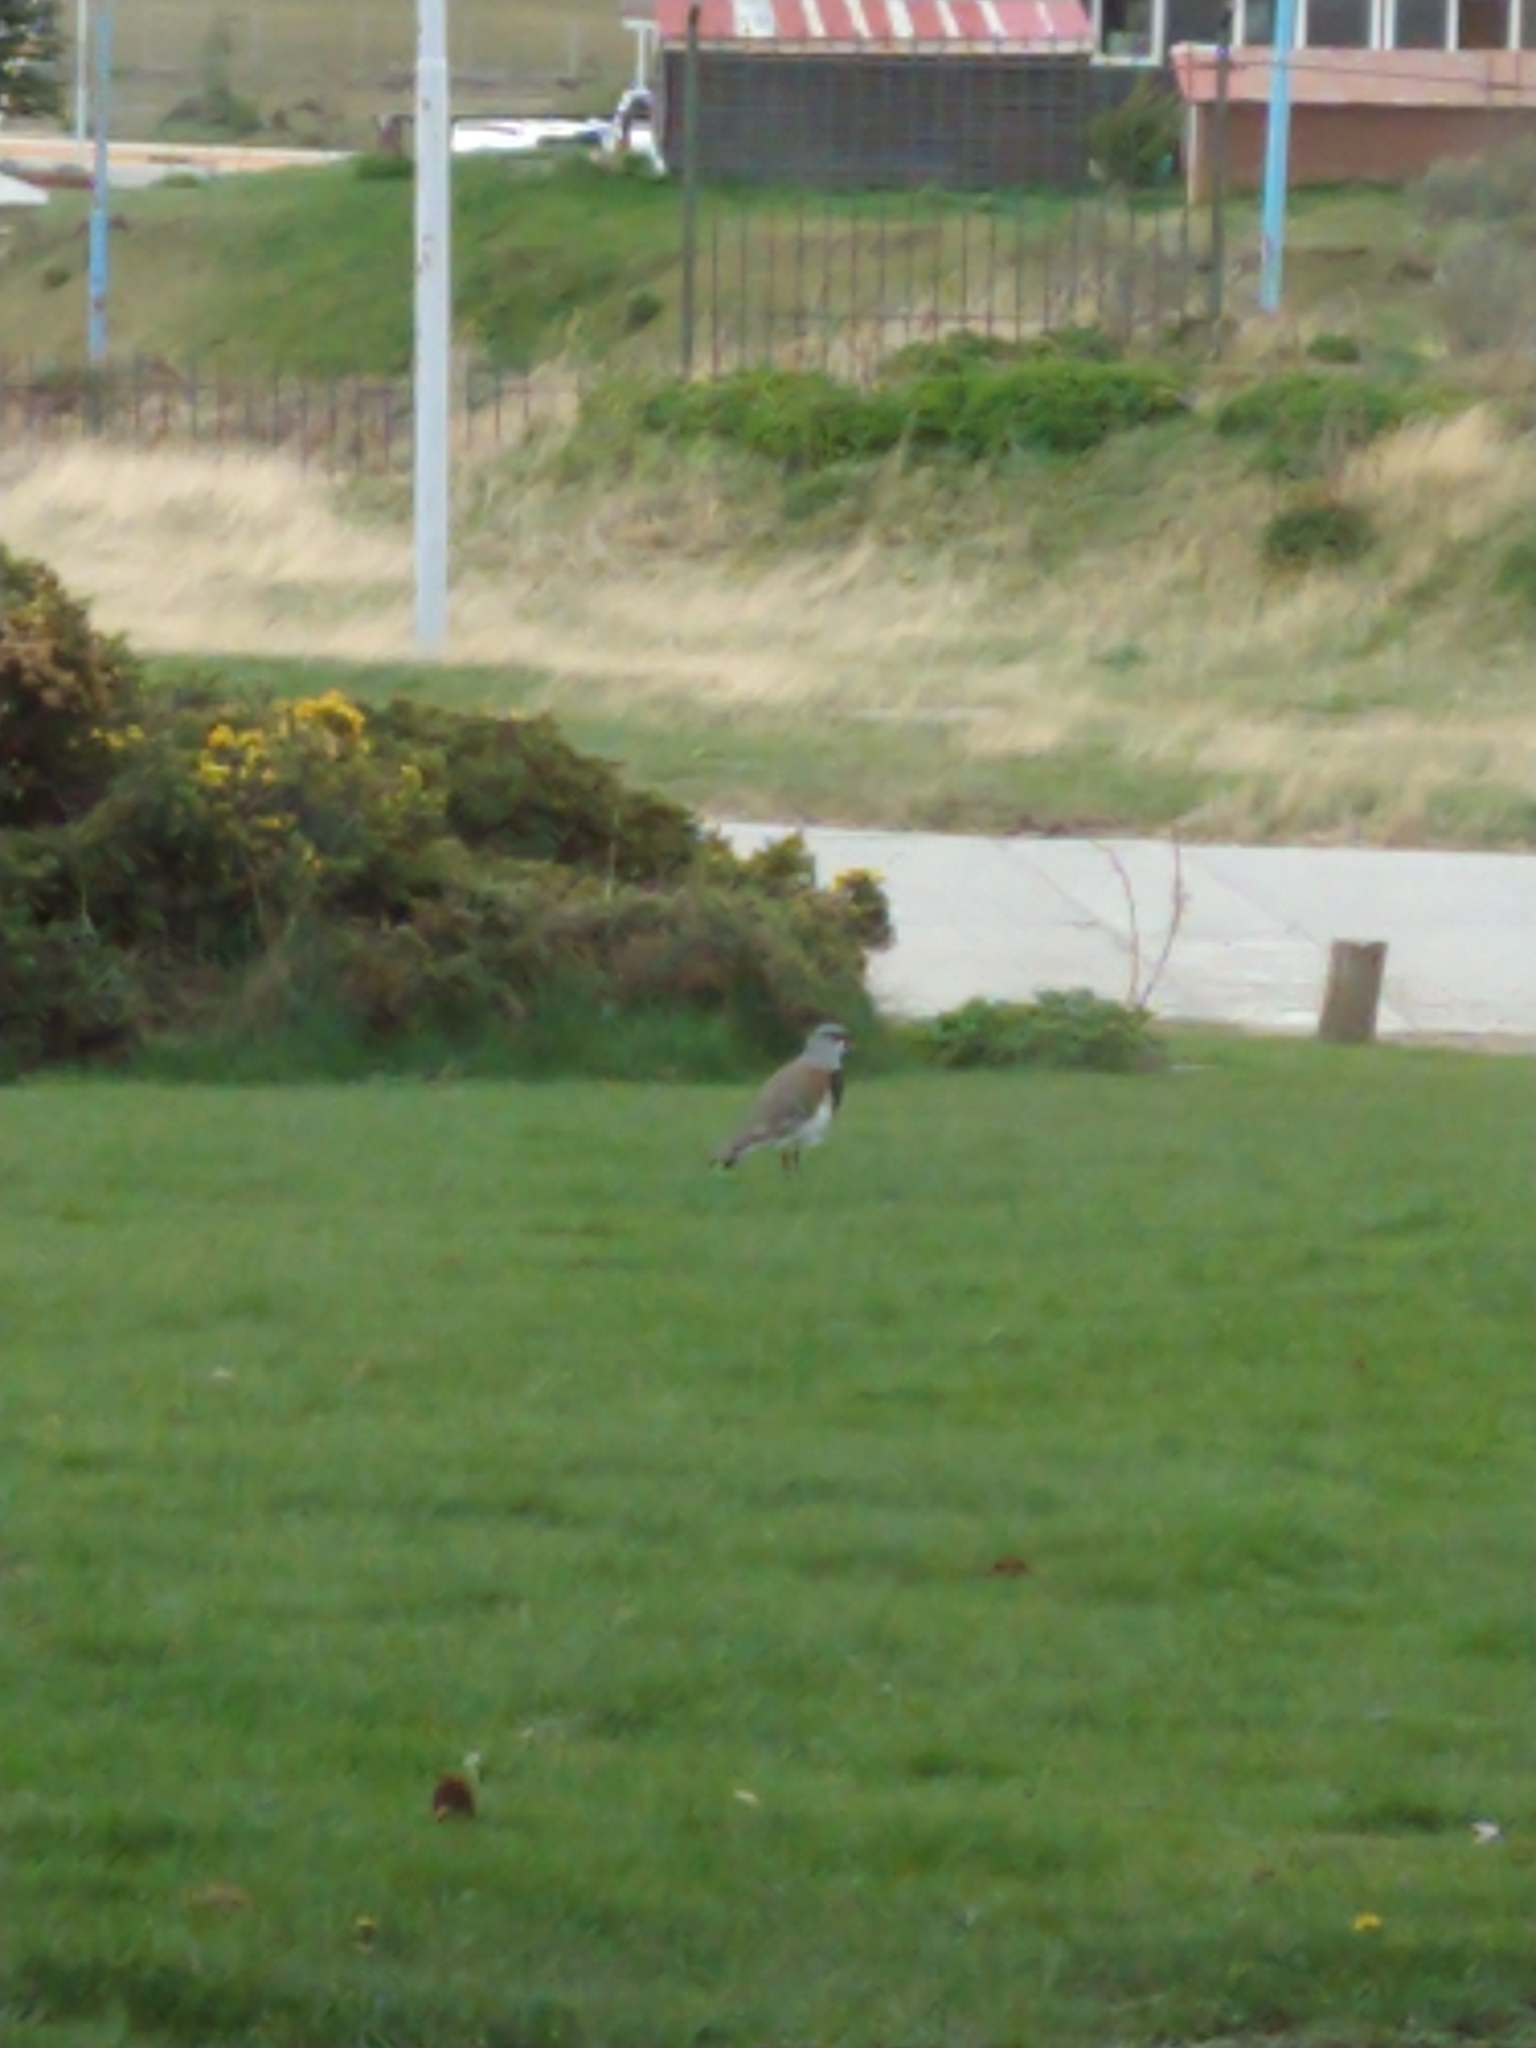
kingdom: Animalia
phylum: Chordata
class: Aves
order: Charadriiformes
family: Charadriidae
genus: Vanellus
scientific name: Vanellus chilensis
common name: Southern lapwing
